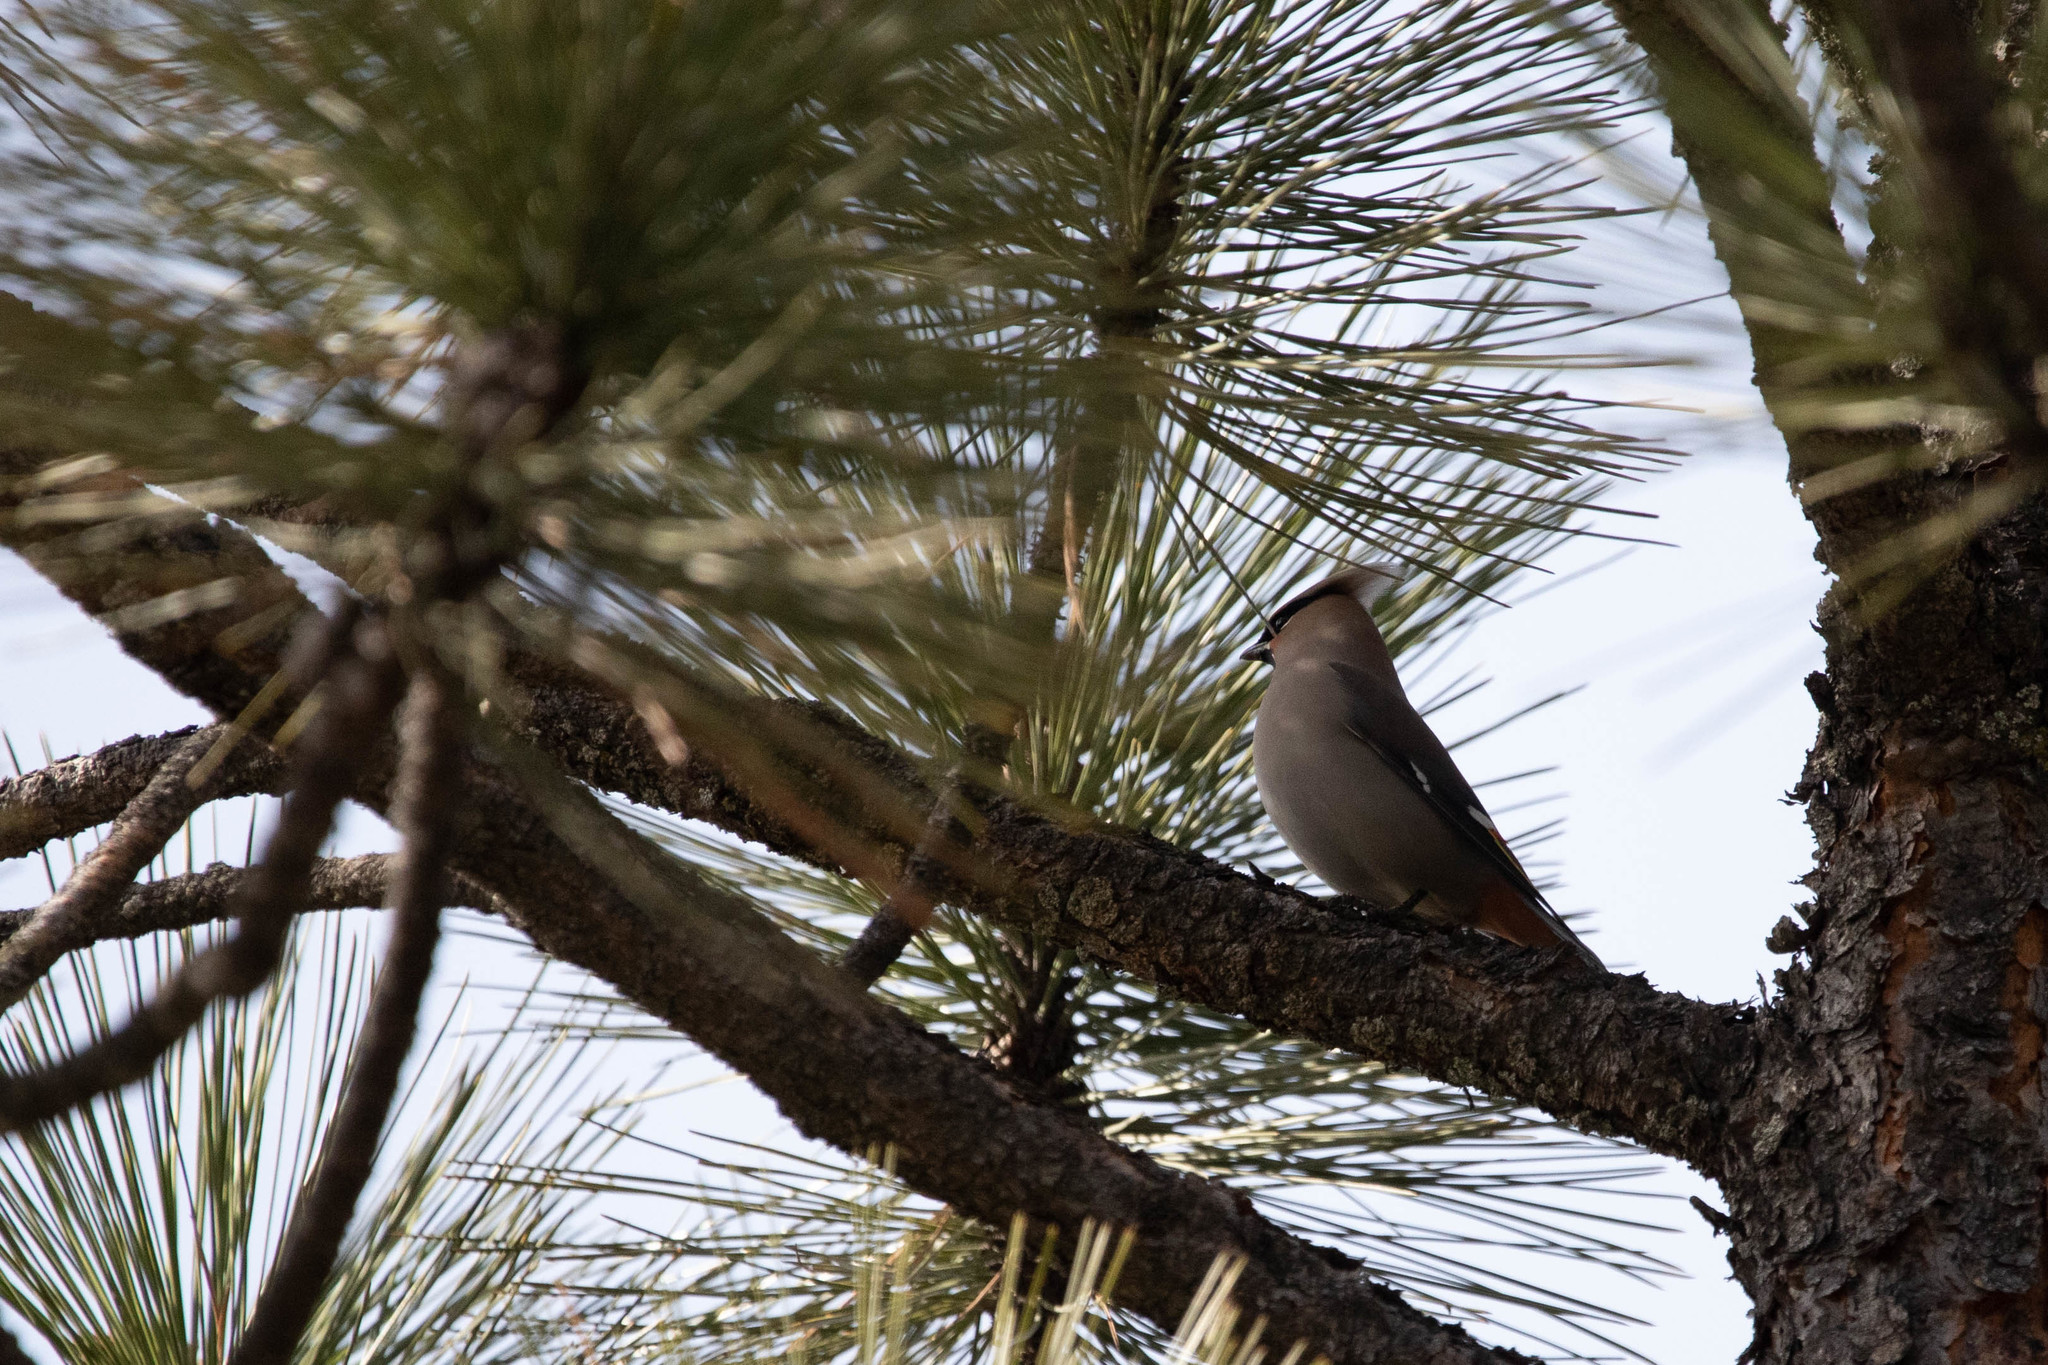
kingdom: Animalia
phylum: Chordata
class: Aves
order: Passeriformes
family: Bombycillidae
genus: Bombycilla
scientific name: Bombycilla garrulus
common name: Bohemian waxwing
